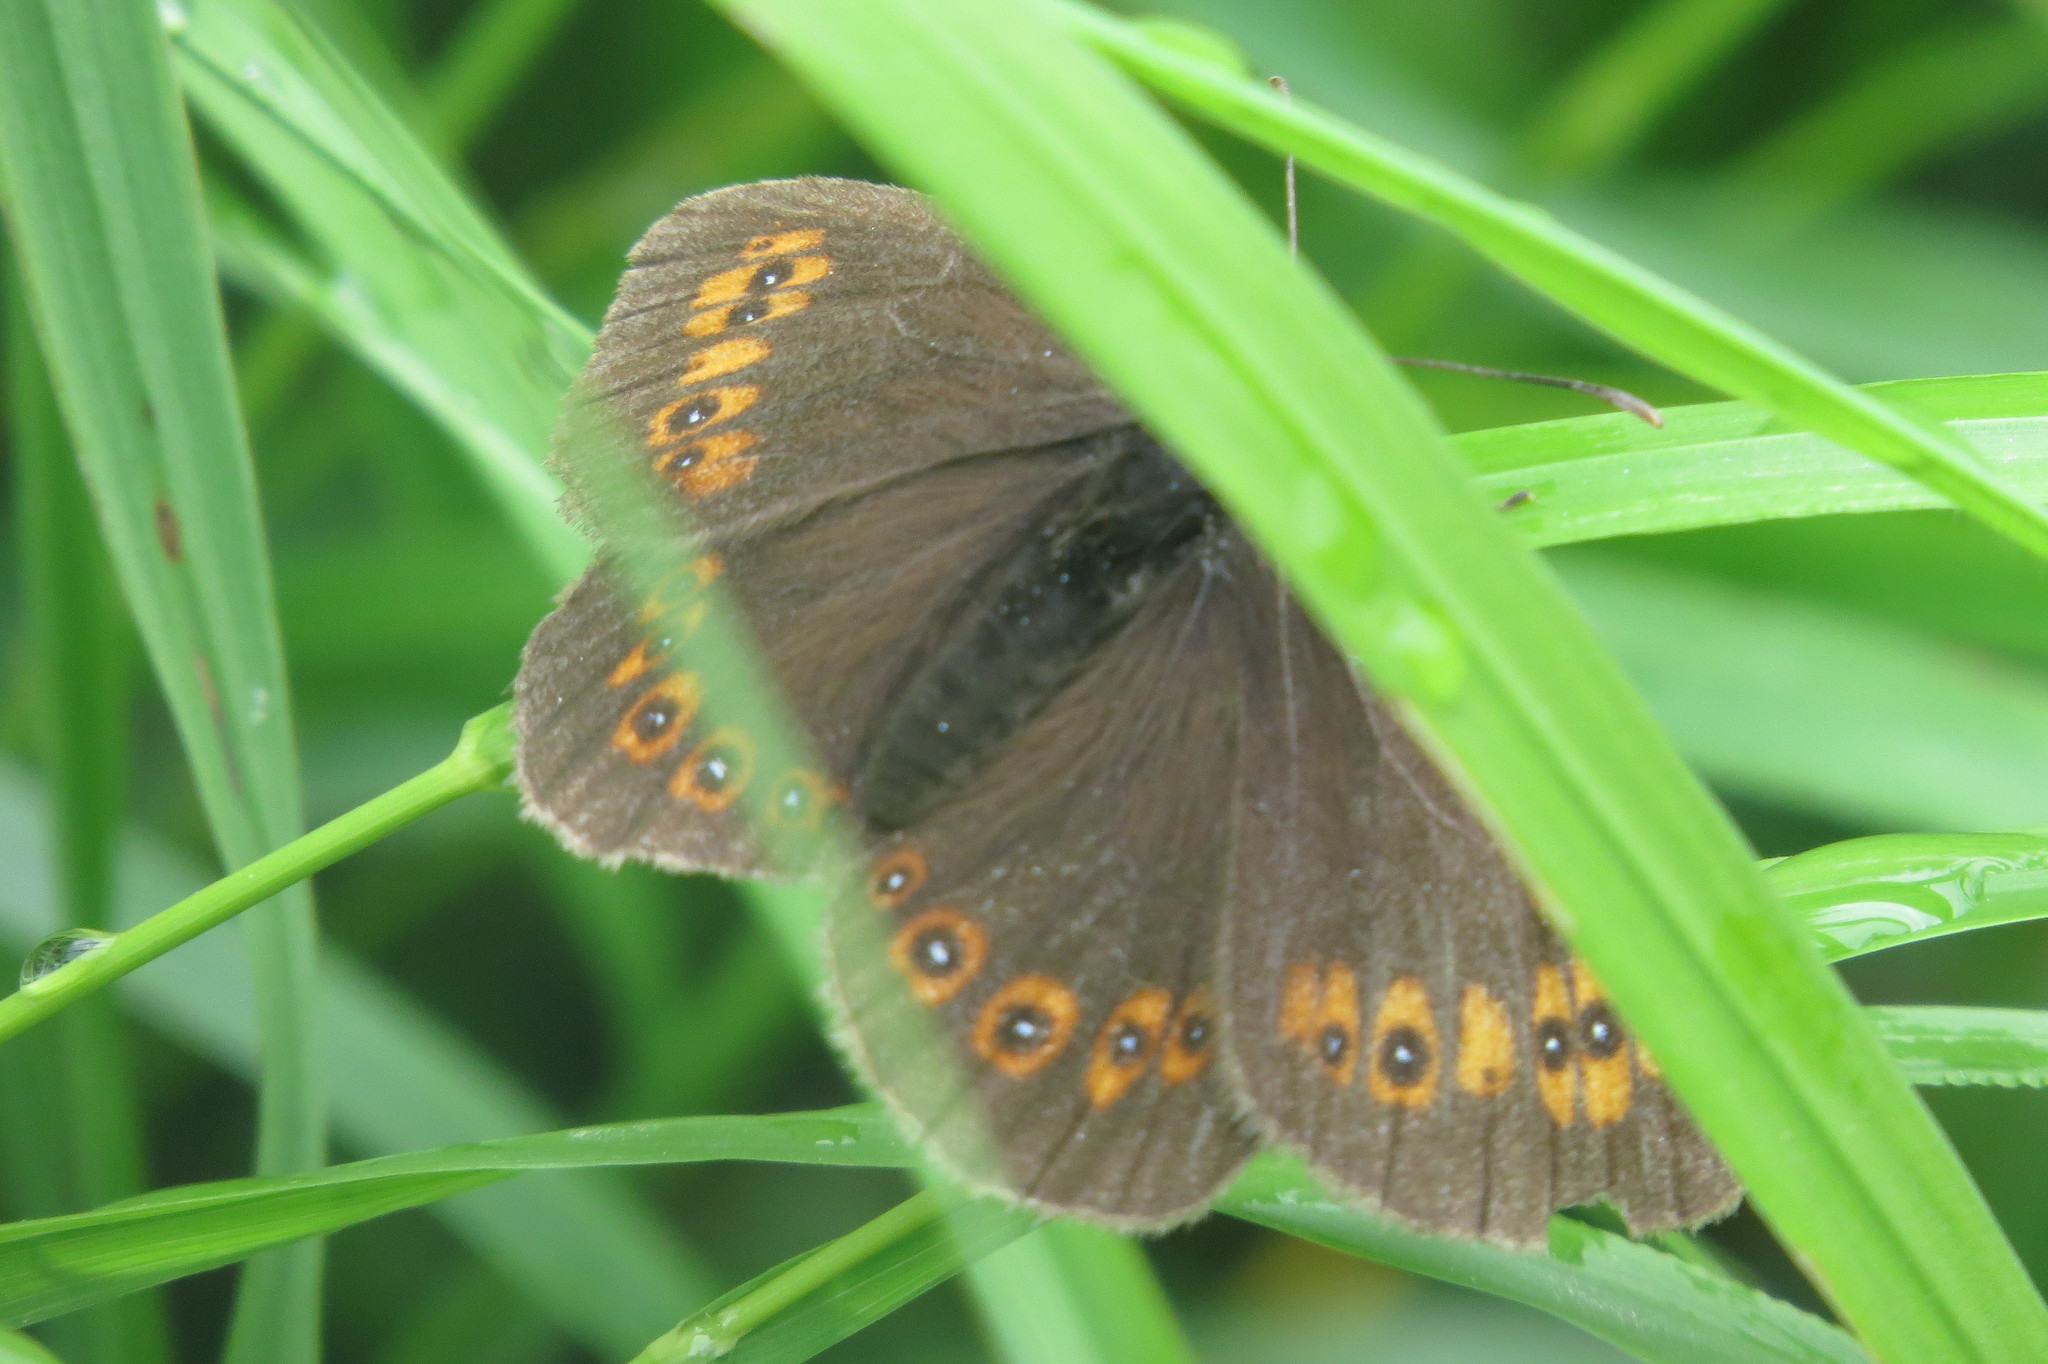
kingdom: Animalia
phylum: Arthropoda
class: Insecta
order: Lepidoptera
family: Nymphalidae
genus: Erebia
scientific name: Erebia alberganus
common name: Almond-eyed ringlet
